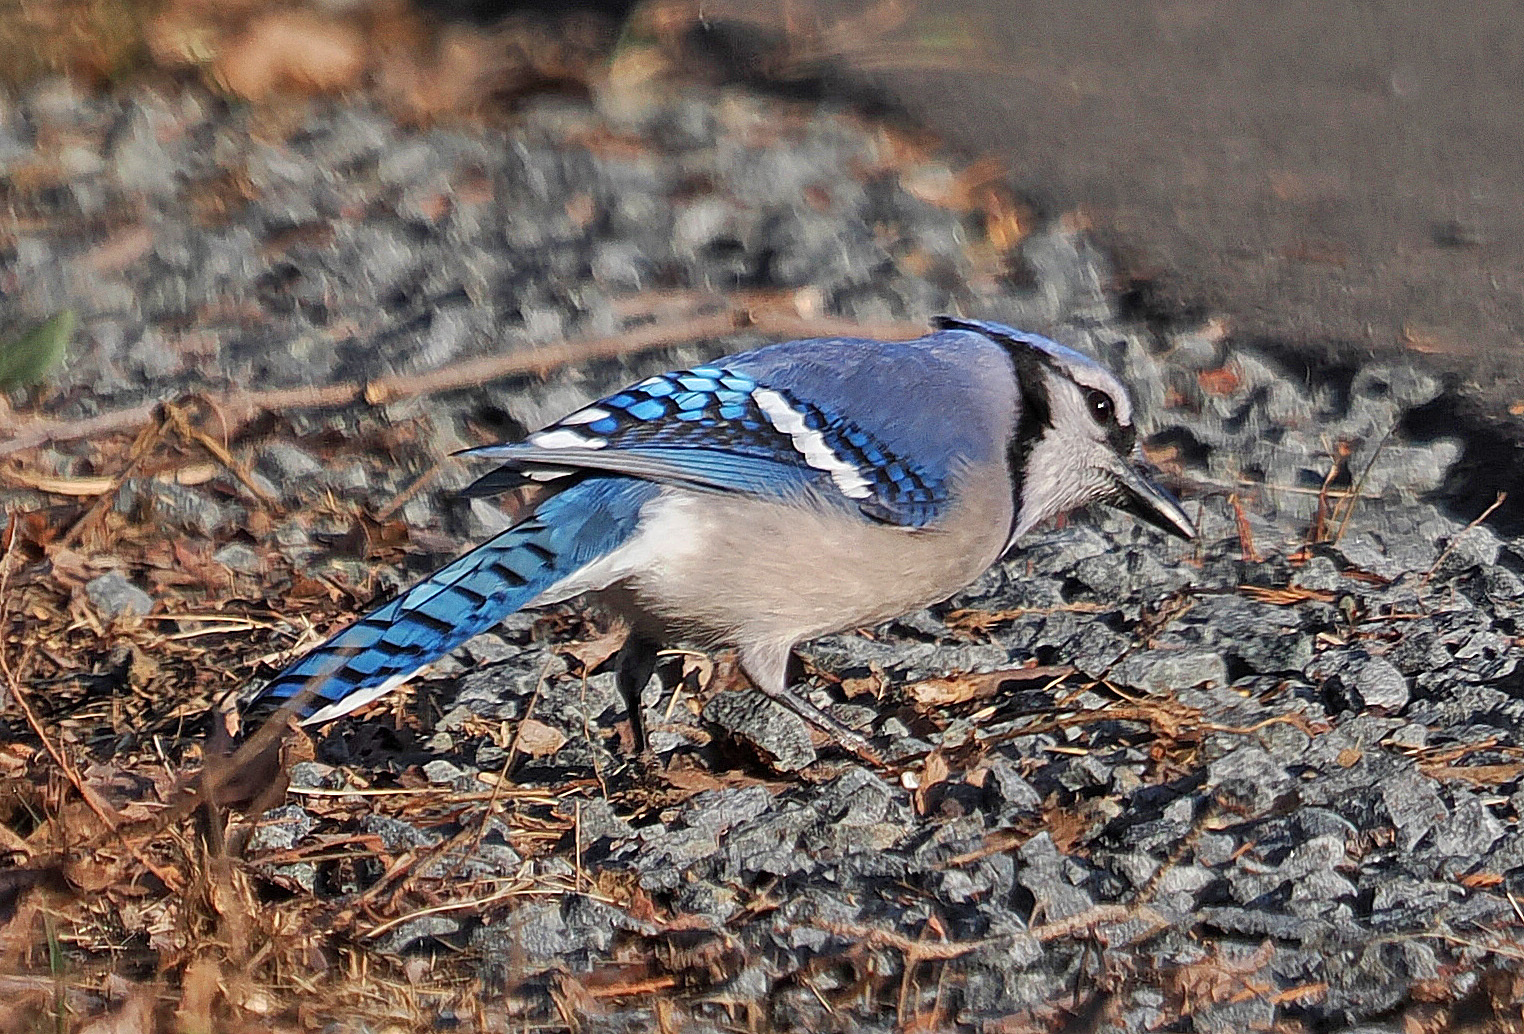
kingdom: Animalia
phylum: Chordata
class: Aves
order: Passeriformes
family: Corvidae
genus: Cyanocitta
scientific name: Cyanocitta cristata
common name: Blue jay
